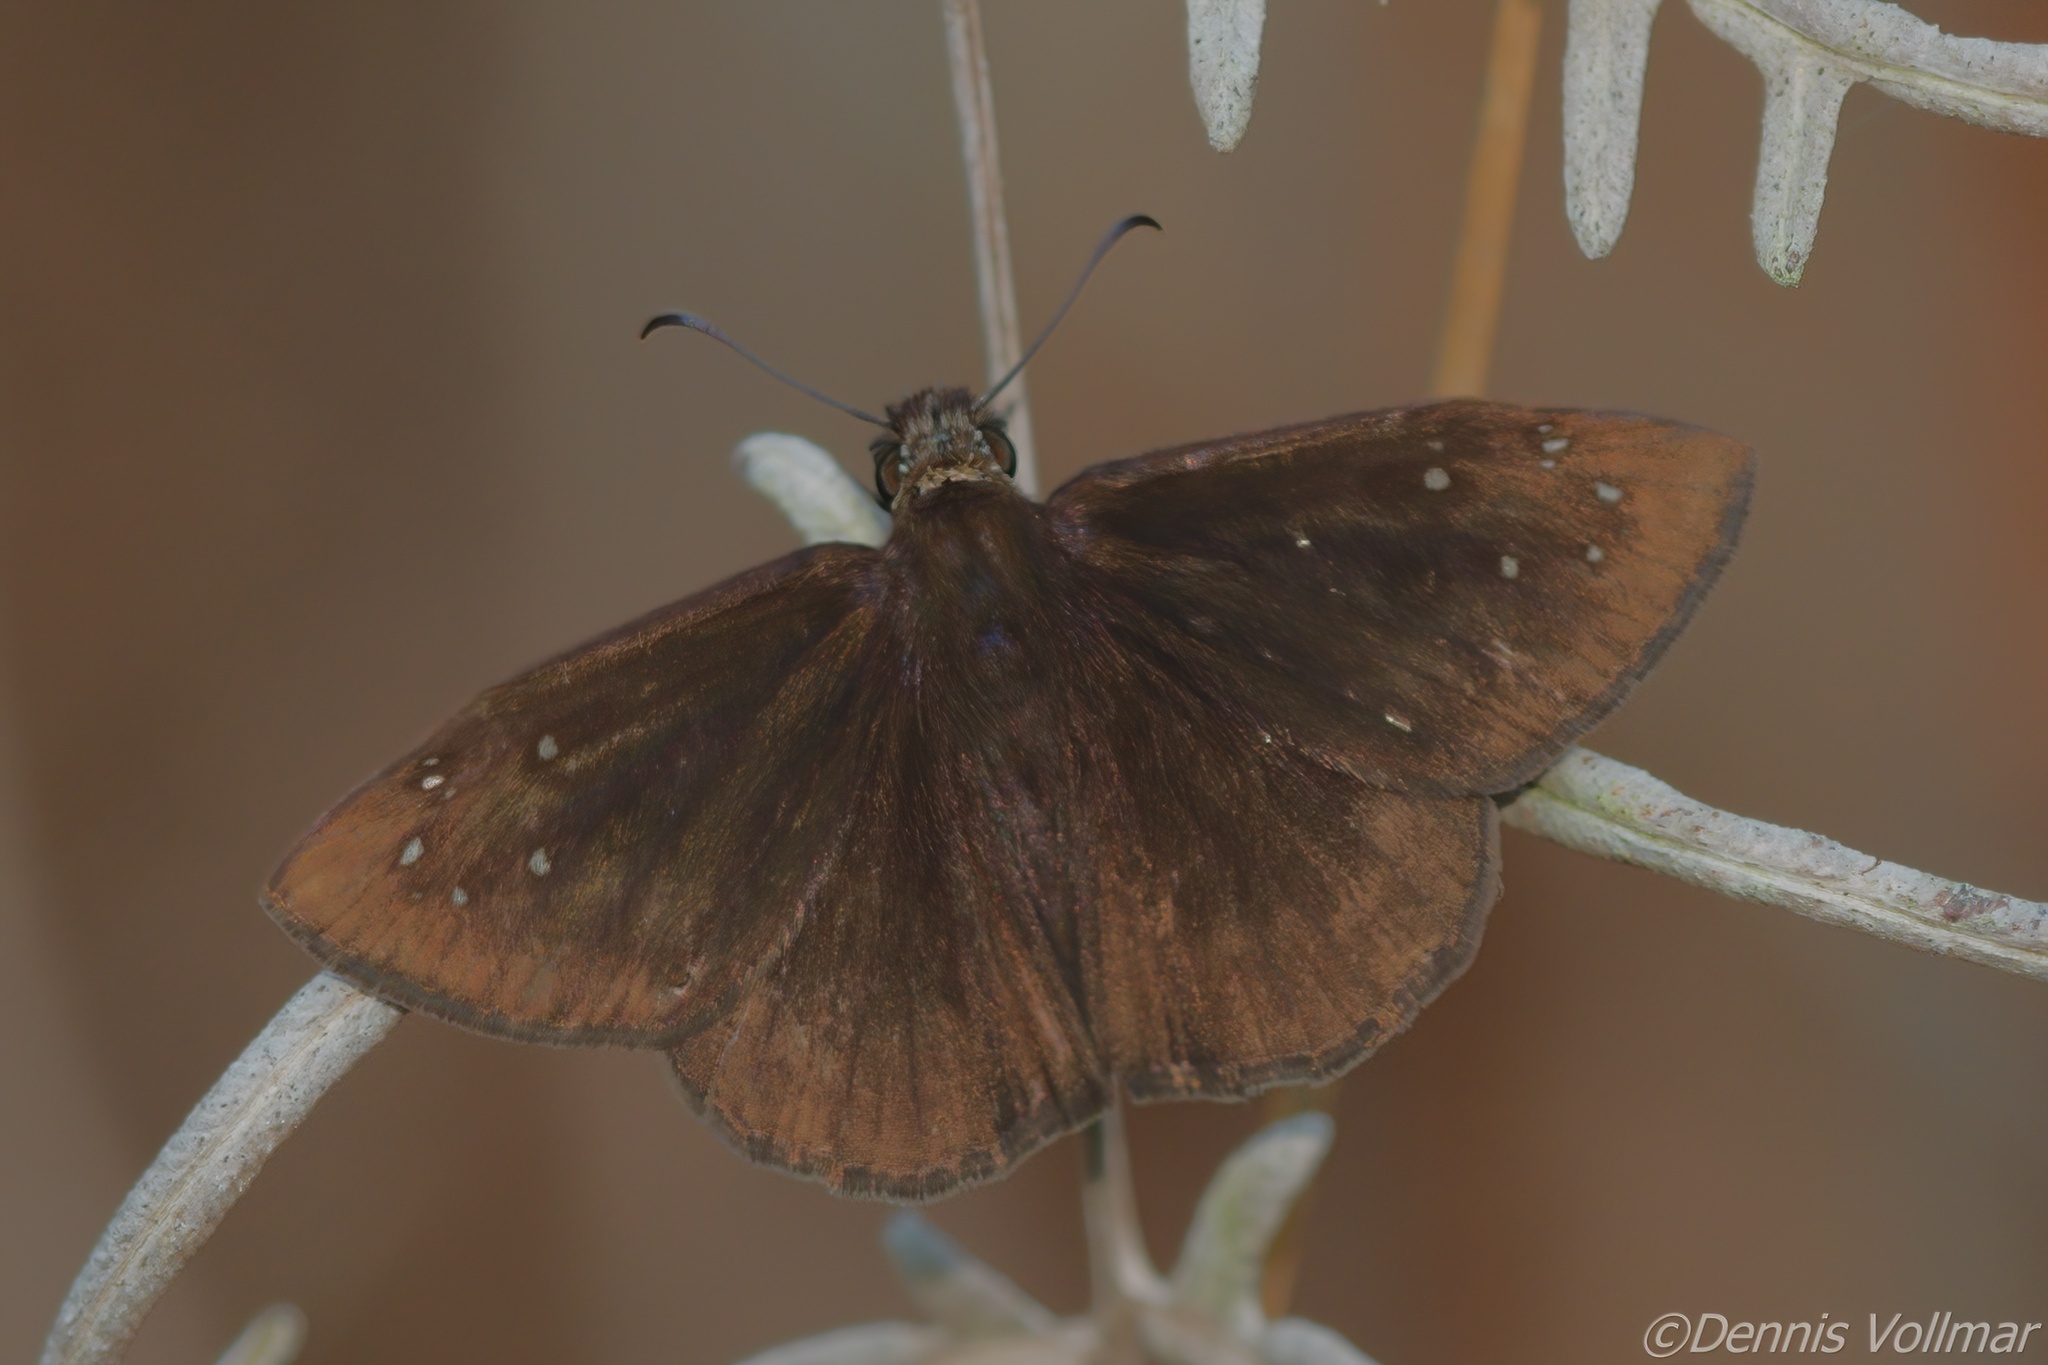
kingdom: Animalia
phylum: Arthropoda
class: Insecta
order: Lepidoptera
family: Hesperiidae
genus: Ephyriades
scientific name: Ephyriades brunnea
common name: Florida duskywing
